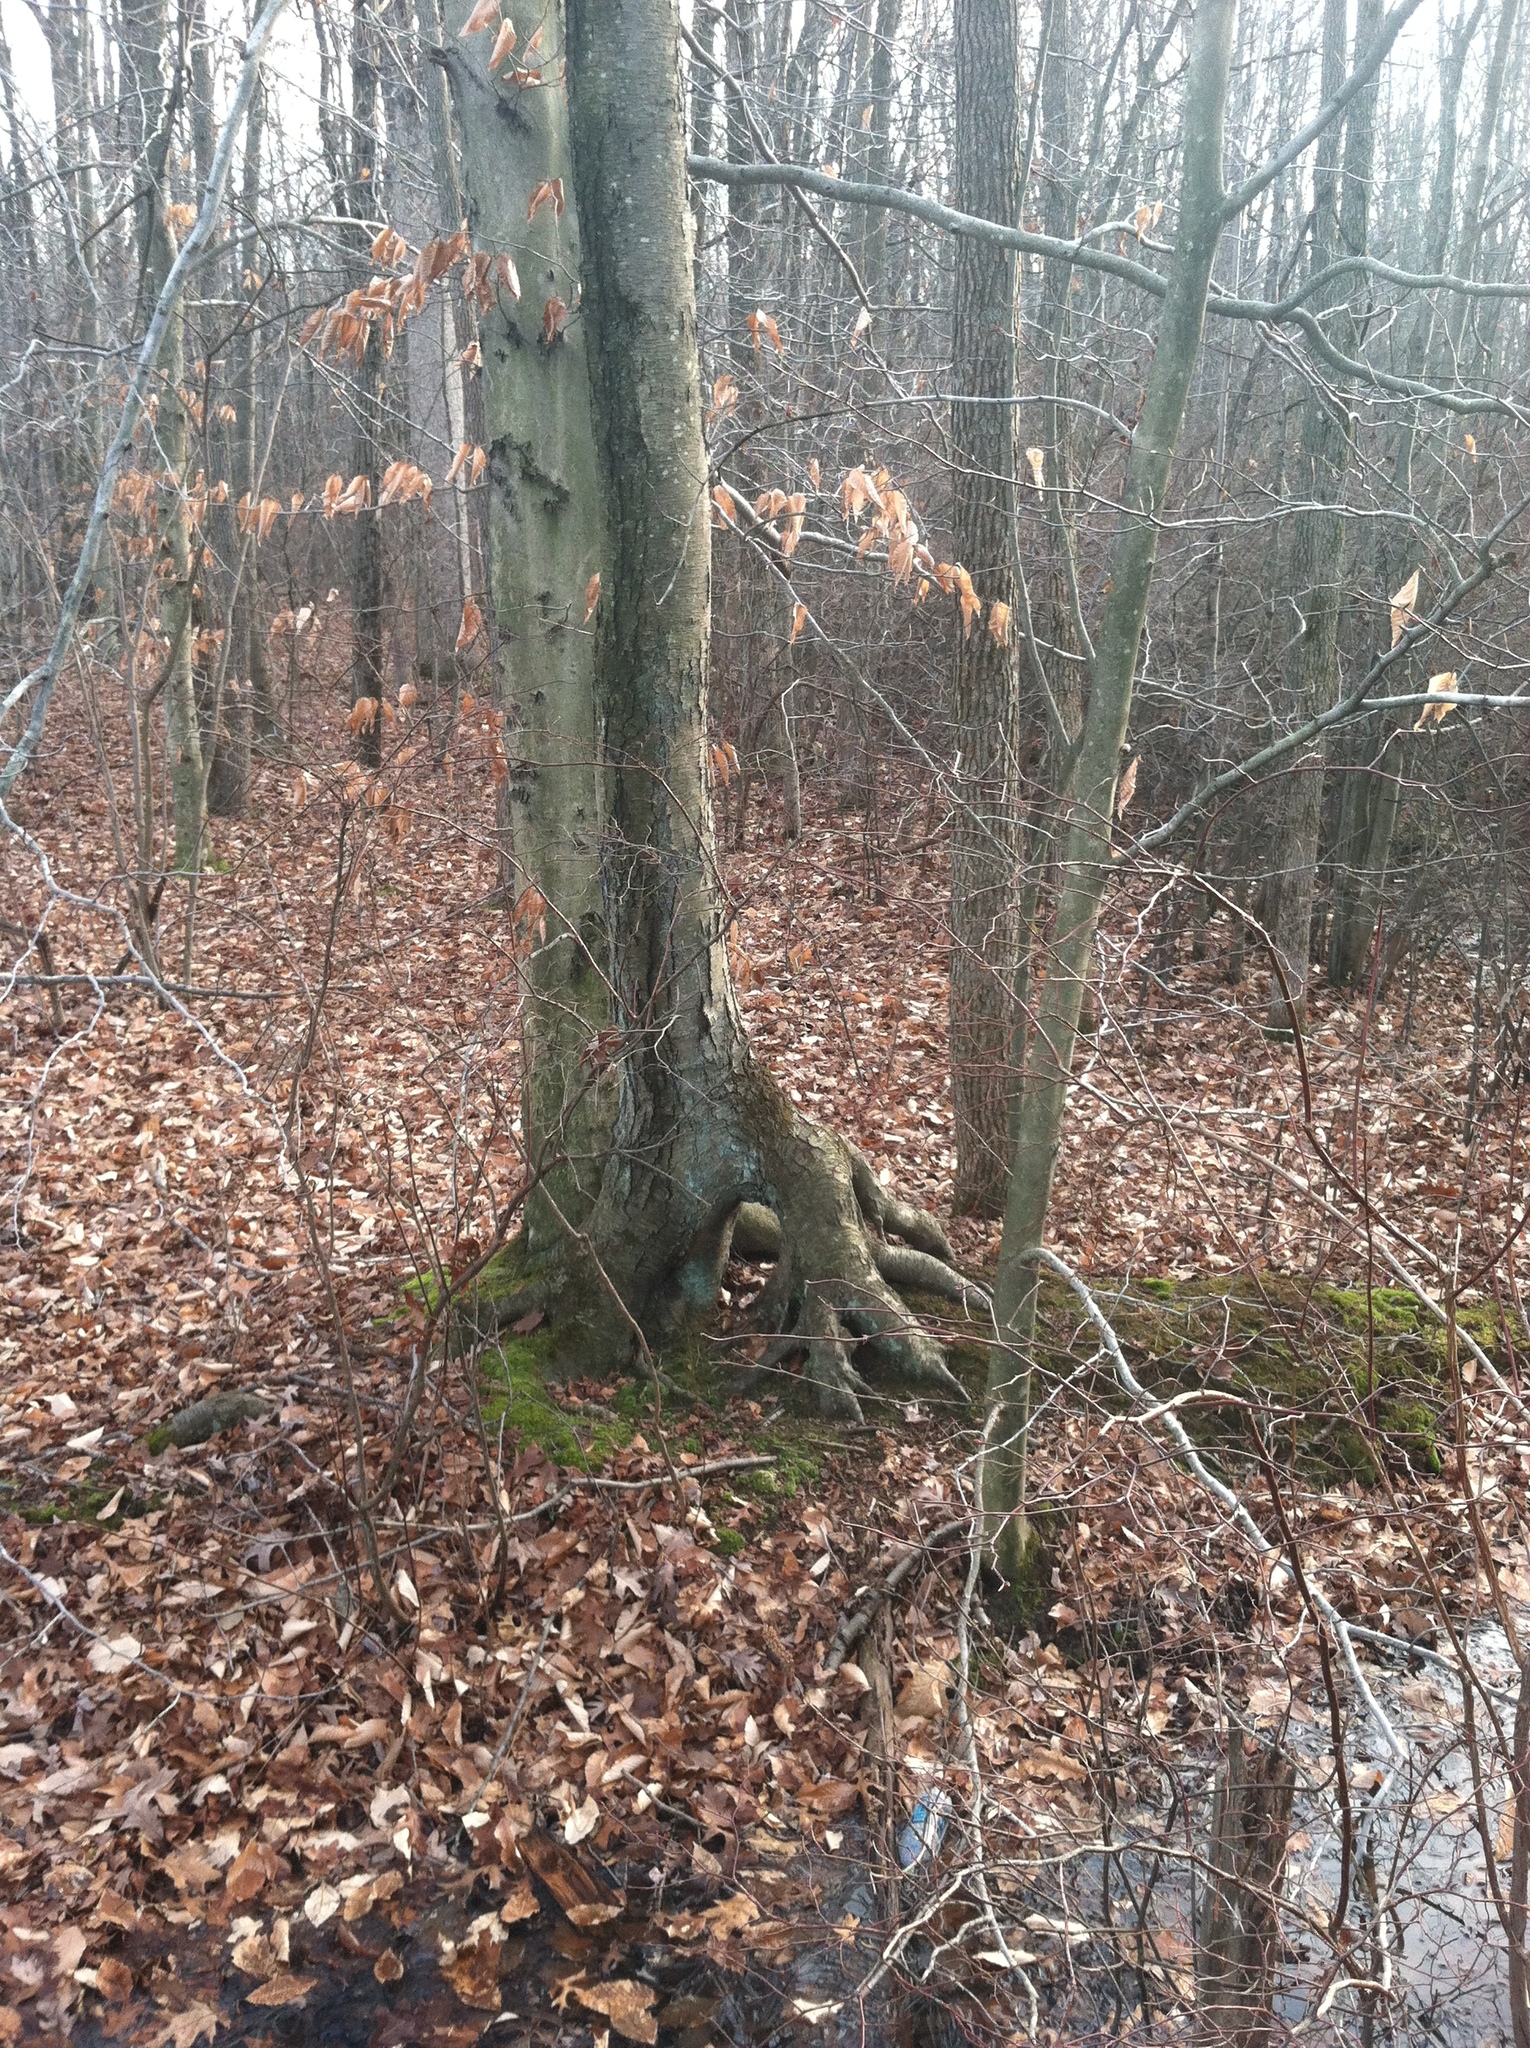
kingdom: Plantae
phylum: Tracheophyta
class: Magnoliopsida
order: Fagales
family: Betulaceae
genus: Betula
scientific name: Betula lenta
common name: Black birch
